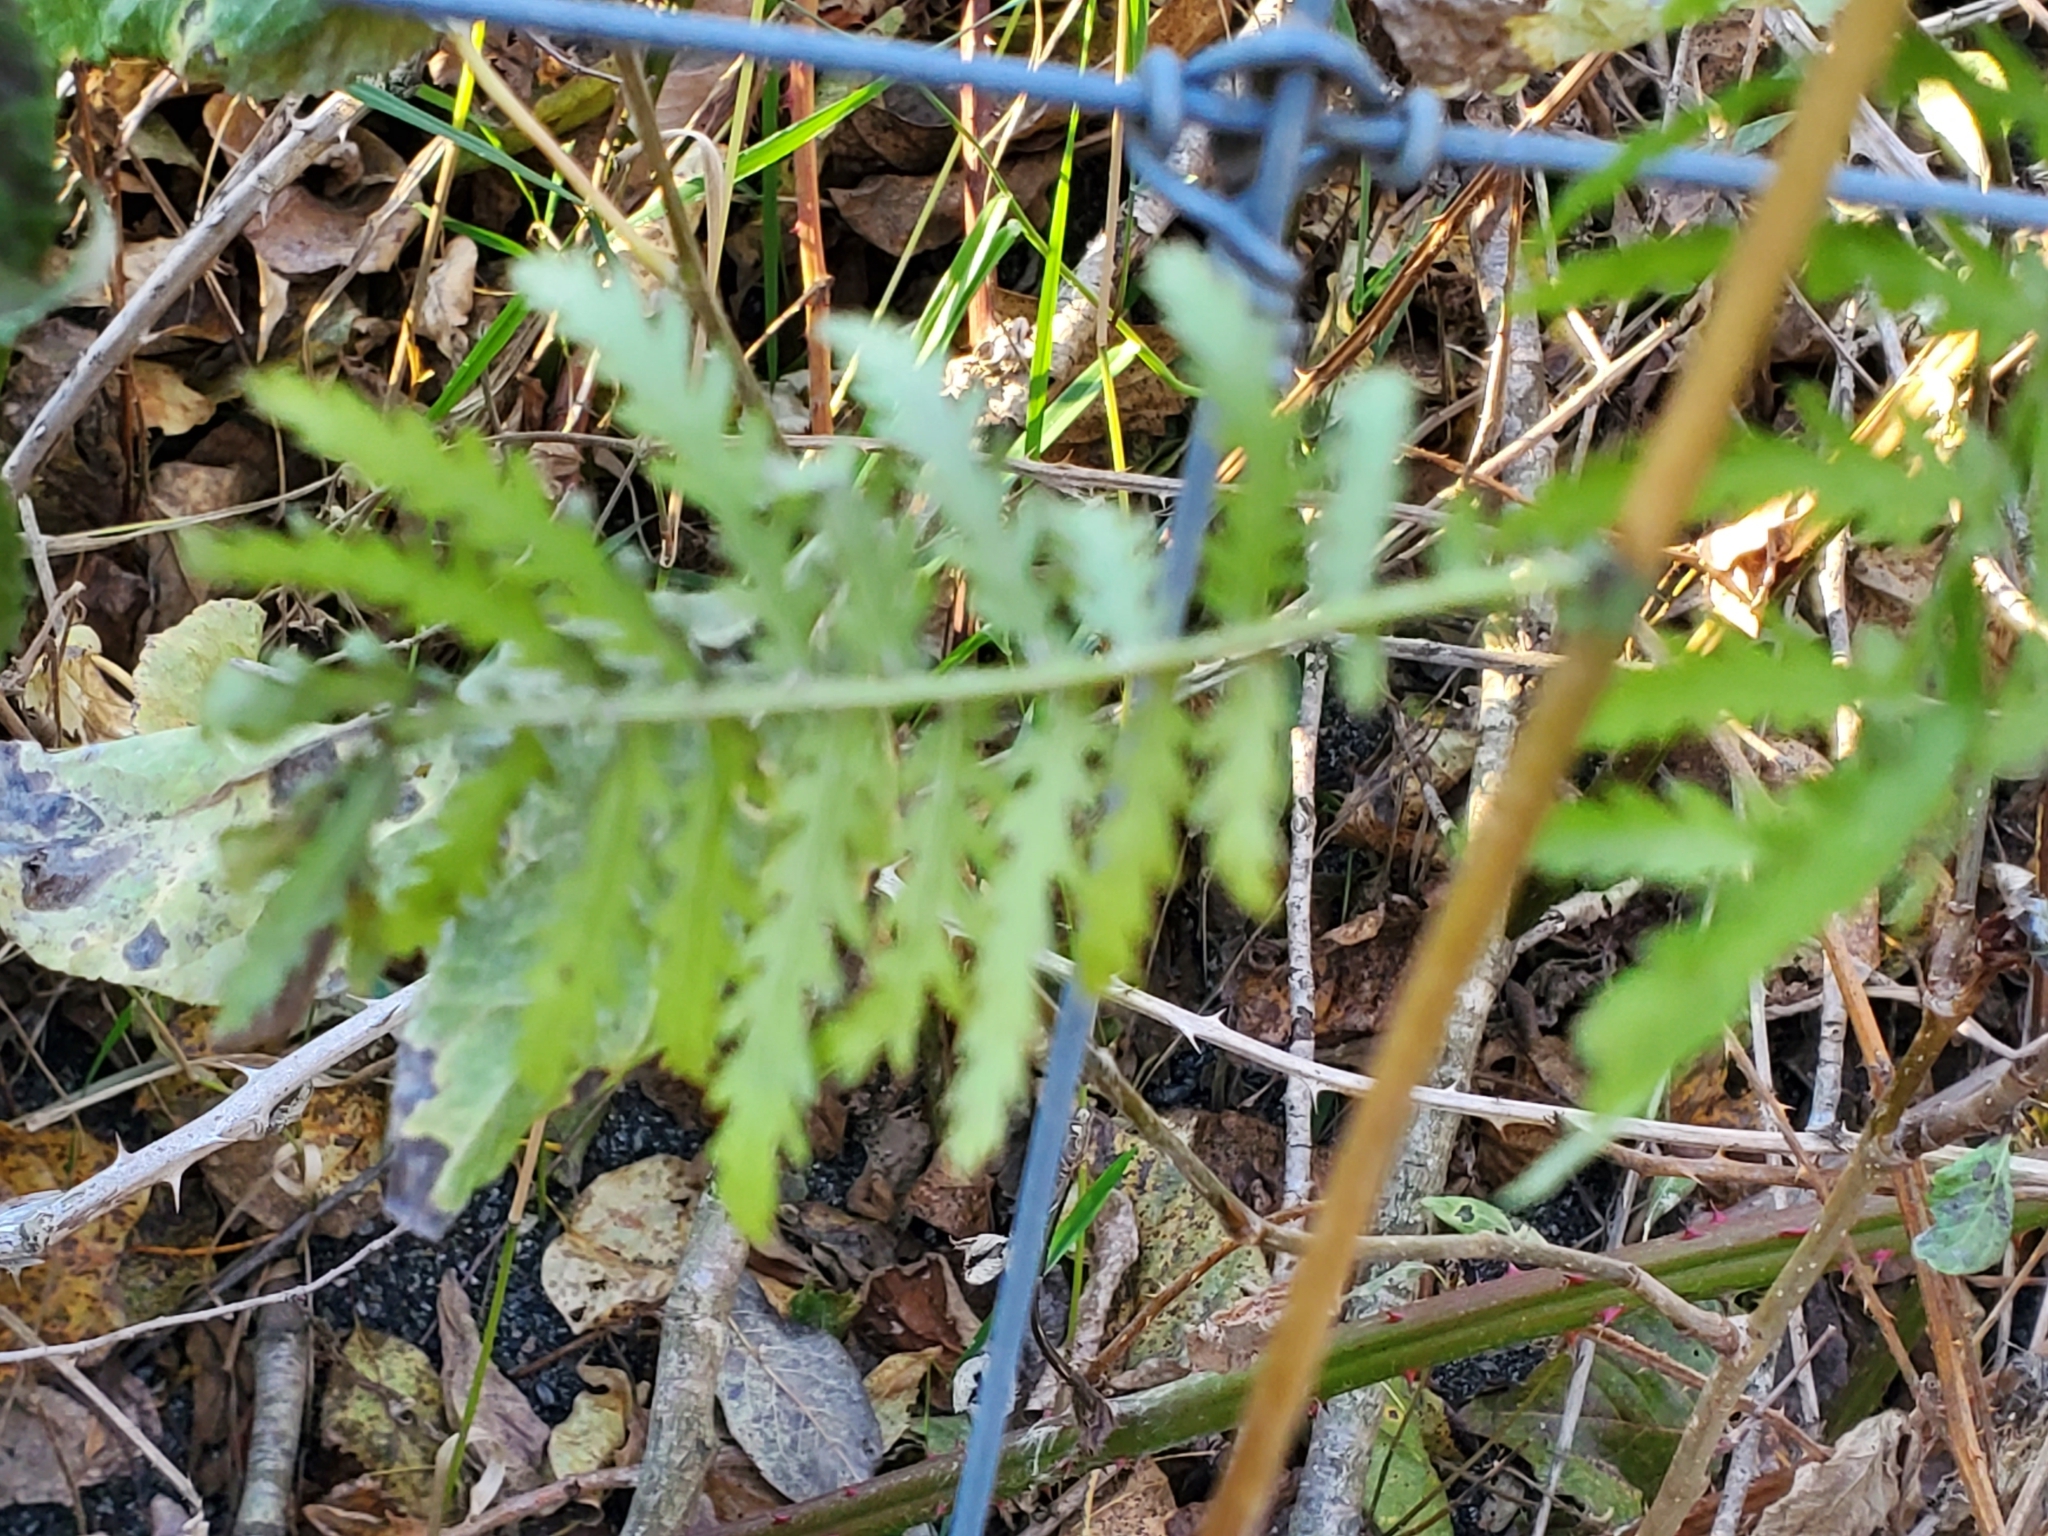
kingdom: Plantae
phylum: Tracheophyta
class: Magnoliopsida
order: Asterales
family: Asteraceae
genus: Tanacetum
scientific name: Tanacetum vulgare
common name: Common tansy
